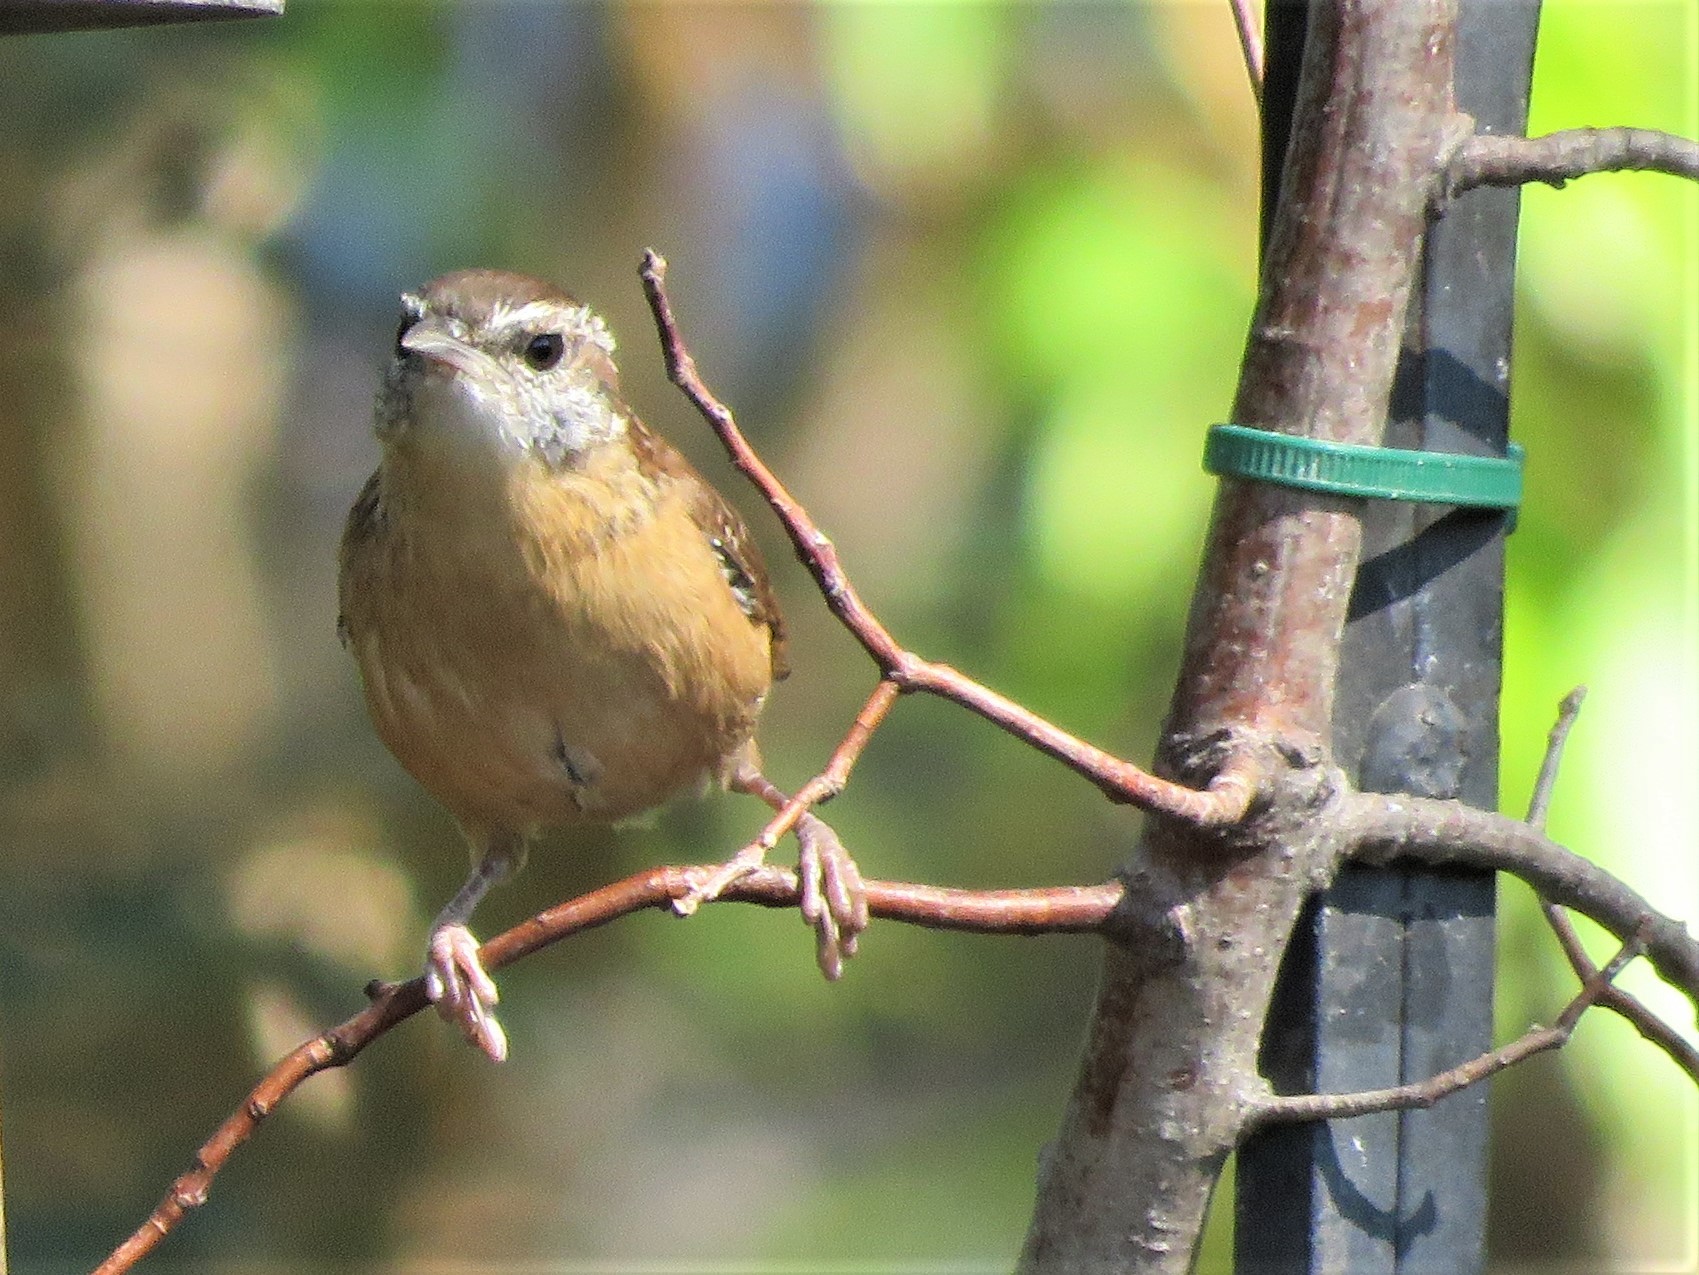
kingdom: Animalia
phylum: Chordata
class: Aves
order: Passeriformes
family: Troglodytidae
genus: Thryothorus
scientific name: Thryothorus ludovicianus
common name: Carolina wren
